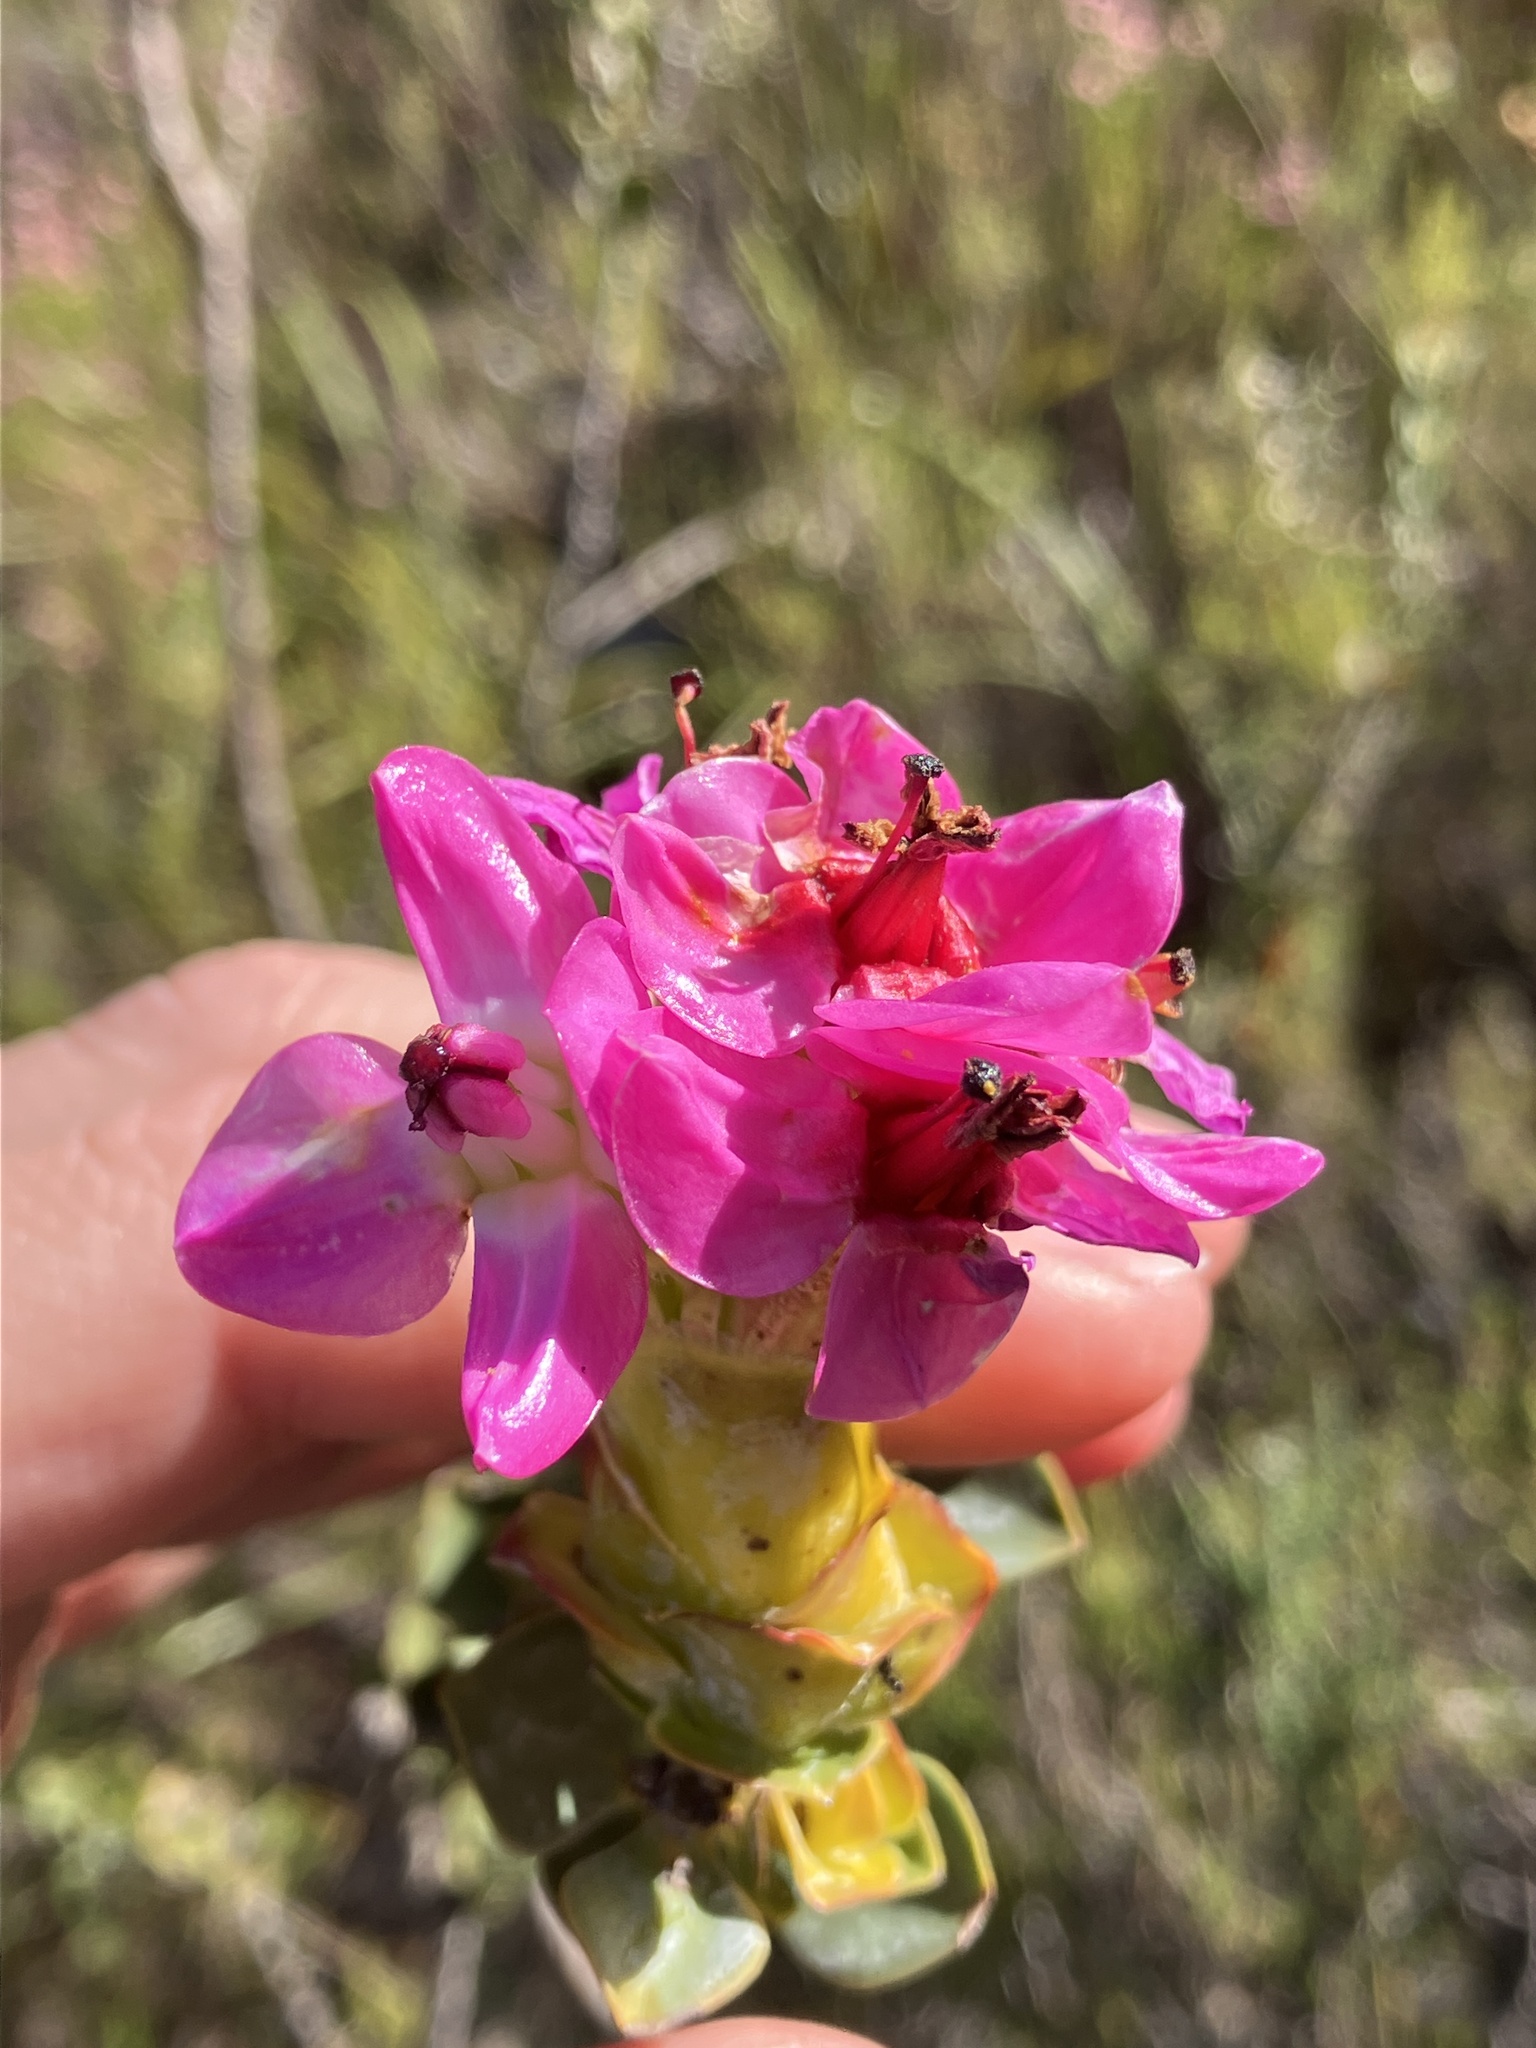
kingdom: Plantae
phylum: Tracheophyta
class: Magnoliopsida
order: Myrtales
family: Penaeaceae
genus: Saltera
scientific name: Saltera sarcocolla
